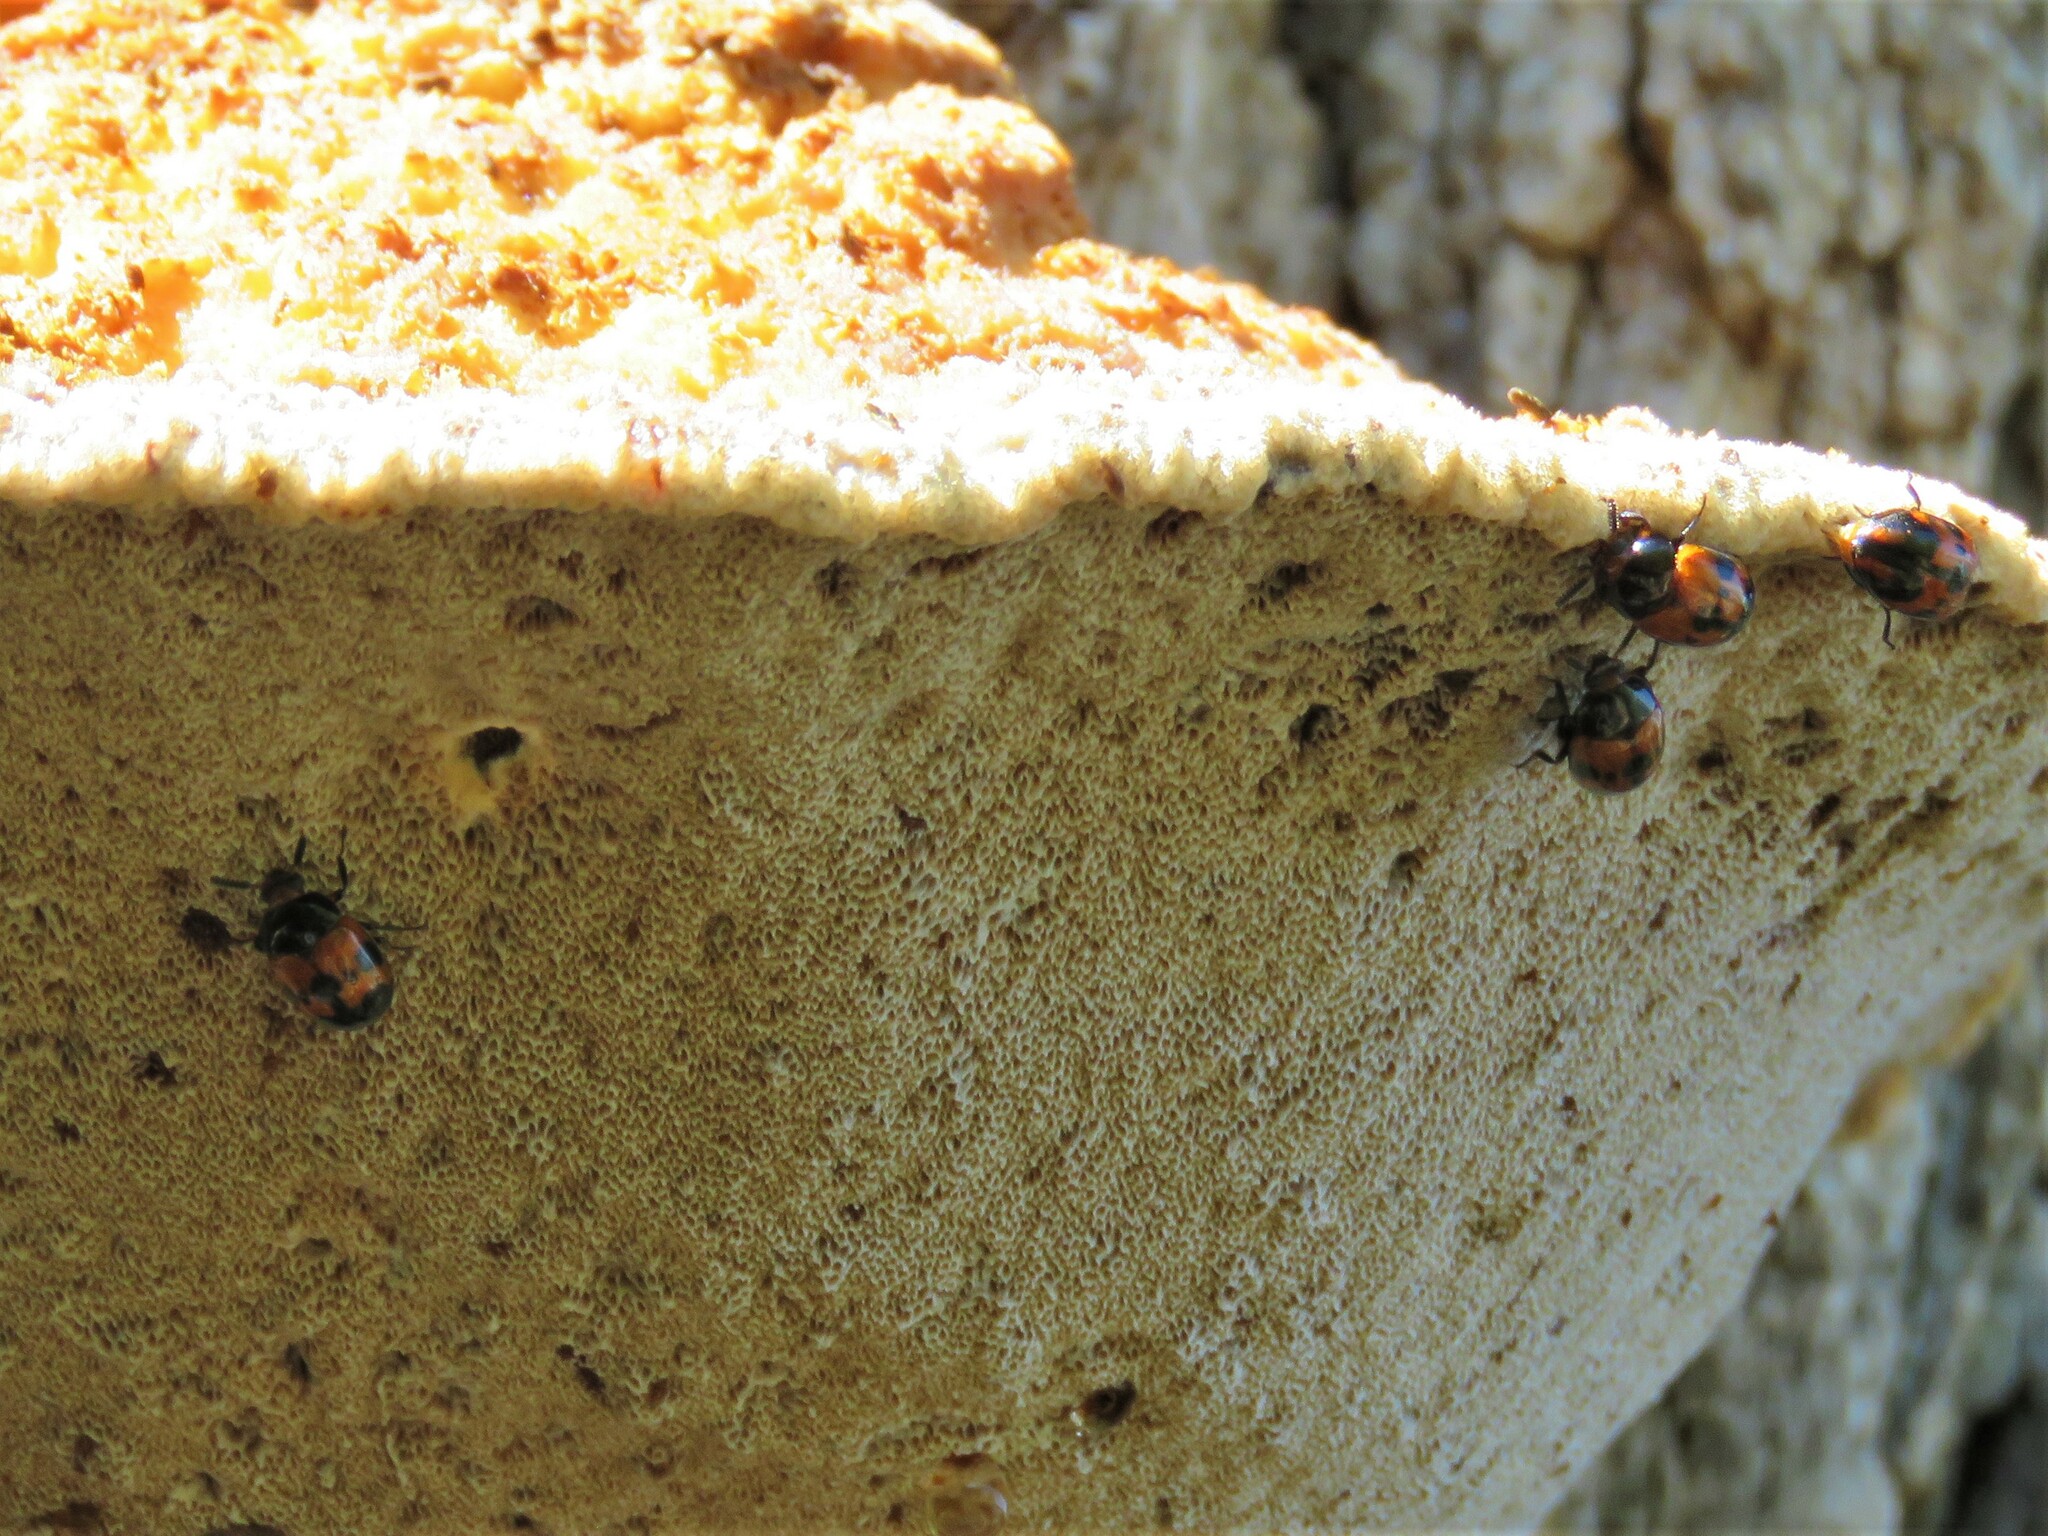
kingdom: Animalia
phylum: Arthropoda
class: Insecta
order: Coleoptera
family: Tenebrionidae
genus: Diaperis
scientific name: Diaperis nigronotata
